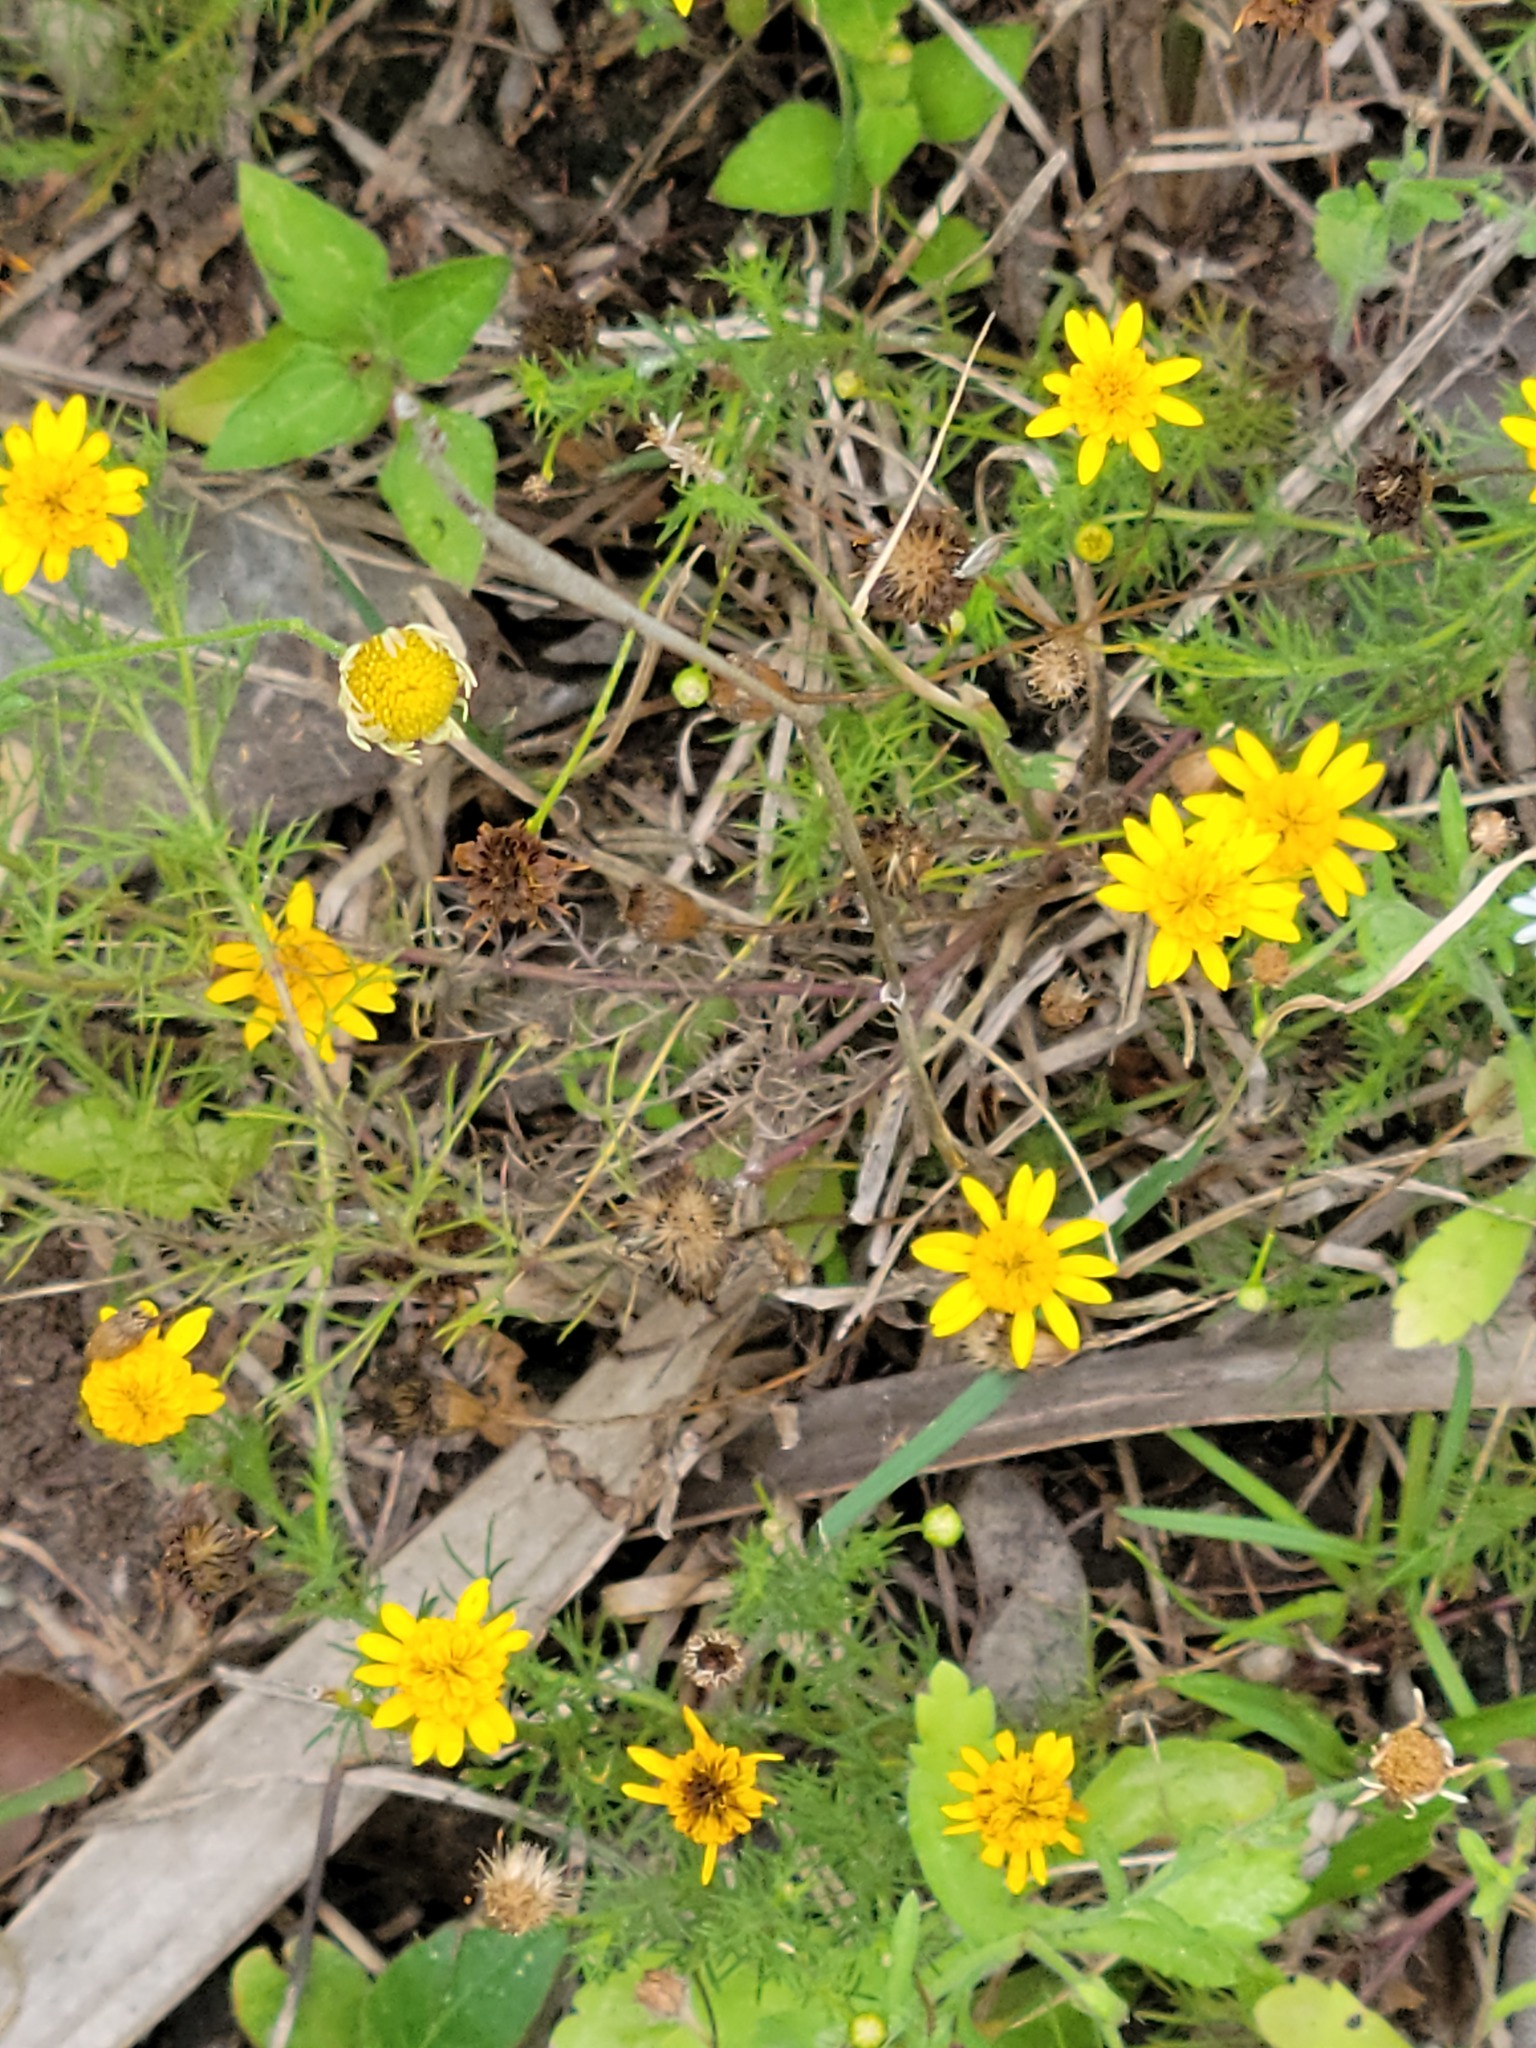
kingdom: Plantae
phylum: Tracheophyta
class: Magnoliopsida
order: Asterales
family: Asteraceae
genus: Thymophylla
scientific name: Thymophylla tenuiloba
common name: Dahlberg's daisy
